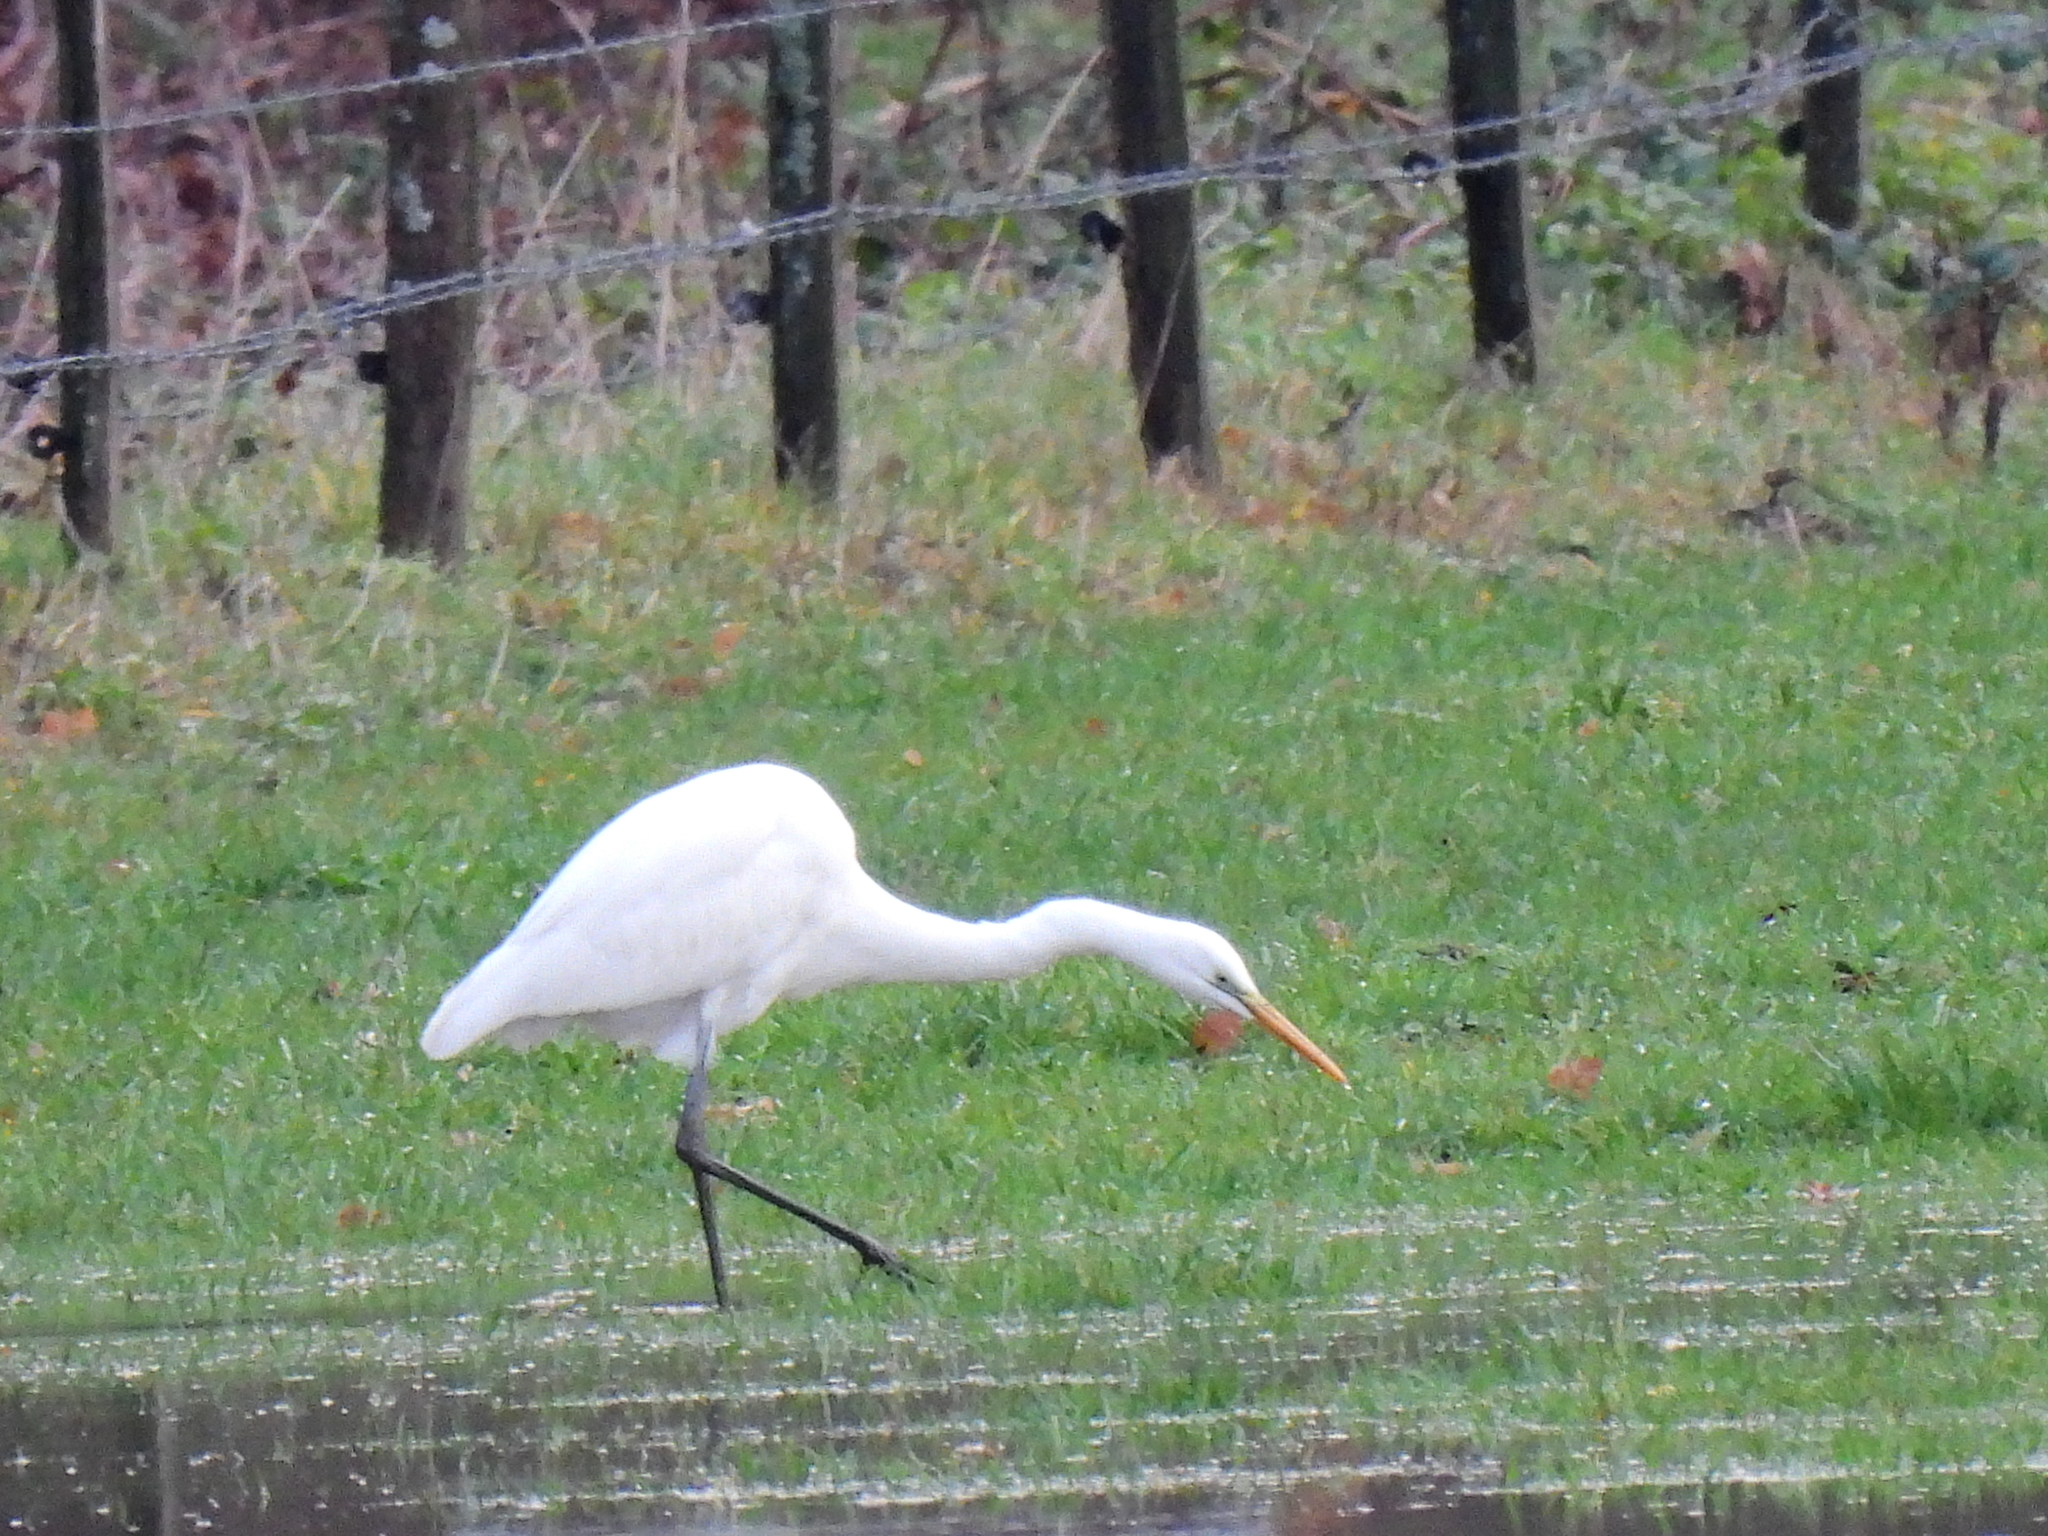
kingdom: Animalia
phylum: Chordata
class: Aves
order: Pelecaniformes
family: Ardeidae
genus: Ardea
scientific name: Ardea alba
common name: Great egret
